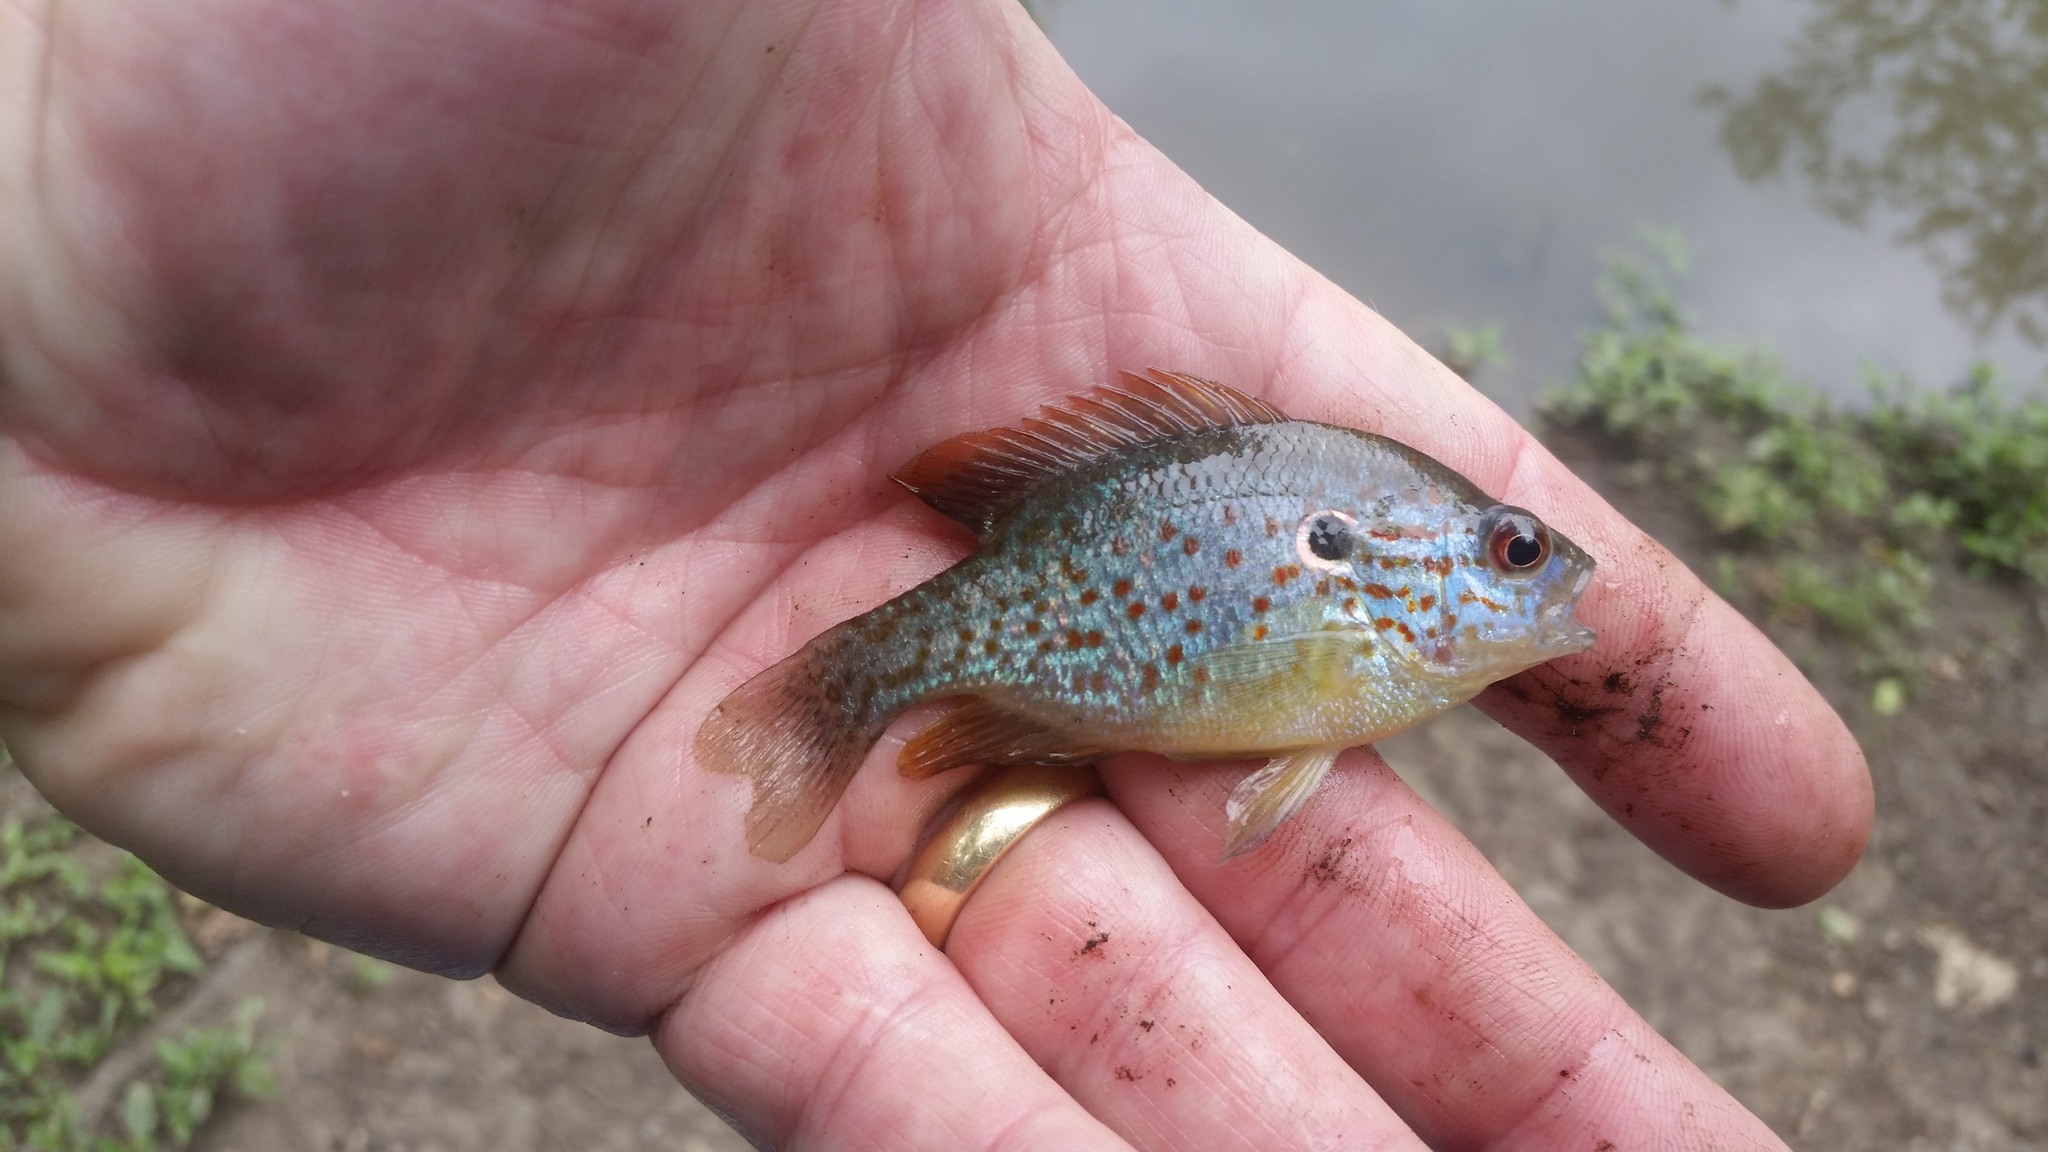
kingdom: Animalia
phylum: Chordata
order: Perciformes
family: Centrarchidae
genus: Lepomis
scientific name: Lepomis humilis
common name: Orangespotted sunfish
